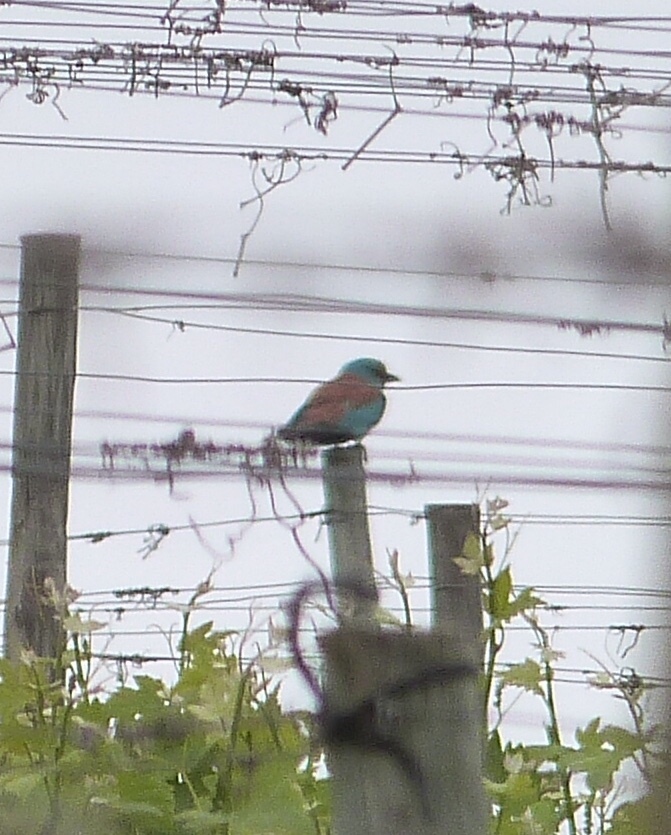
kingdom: Animalia
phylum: Chordata
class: Aves
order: Coraciiformes
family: Coraciidae
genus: Coracias
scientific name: Coracias garrulus
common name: European roller
